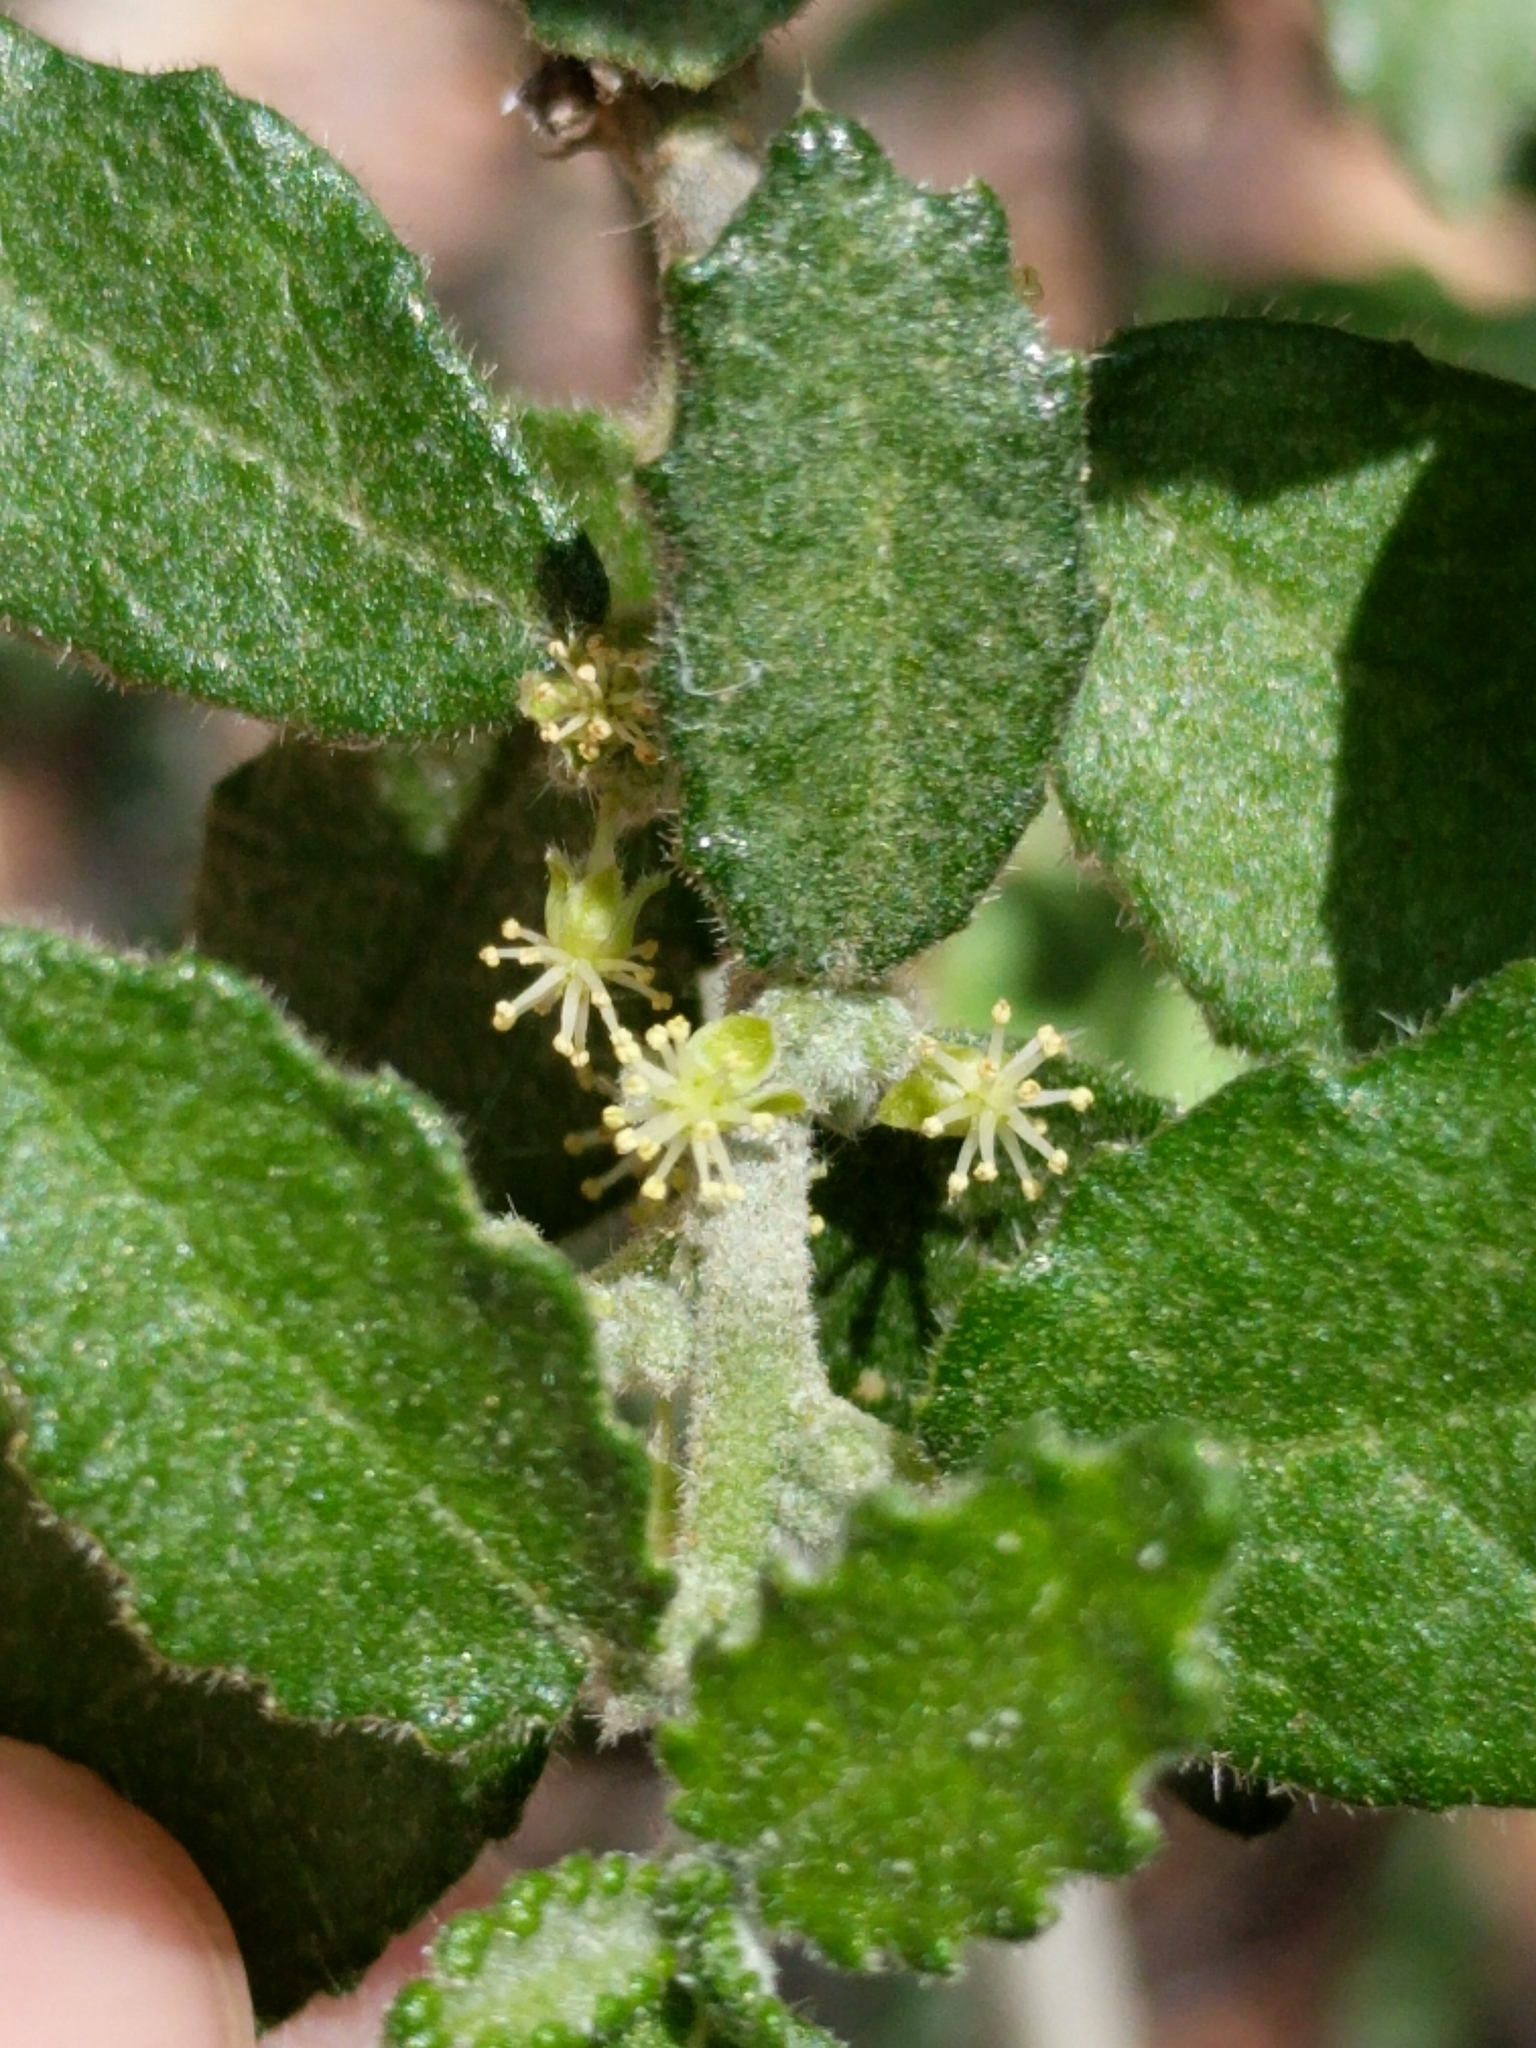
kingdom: Plantae
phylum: Tracheophyta
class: Magnoliopsida
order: Malpighiales
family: Euphorbiaceae
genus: Bernardia
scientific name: Bernardia myricifolia
